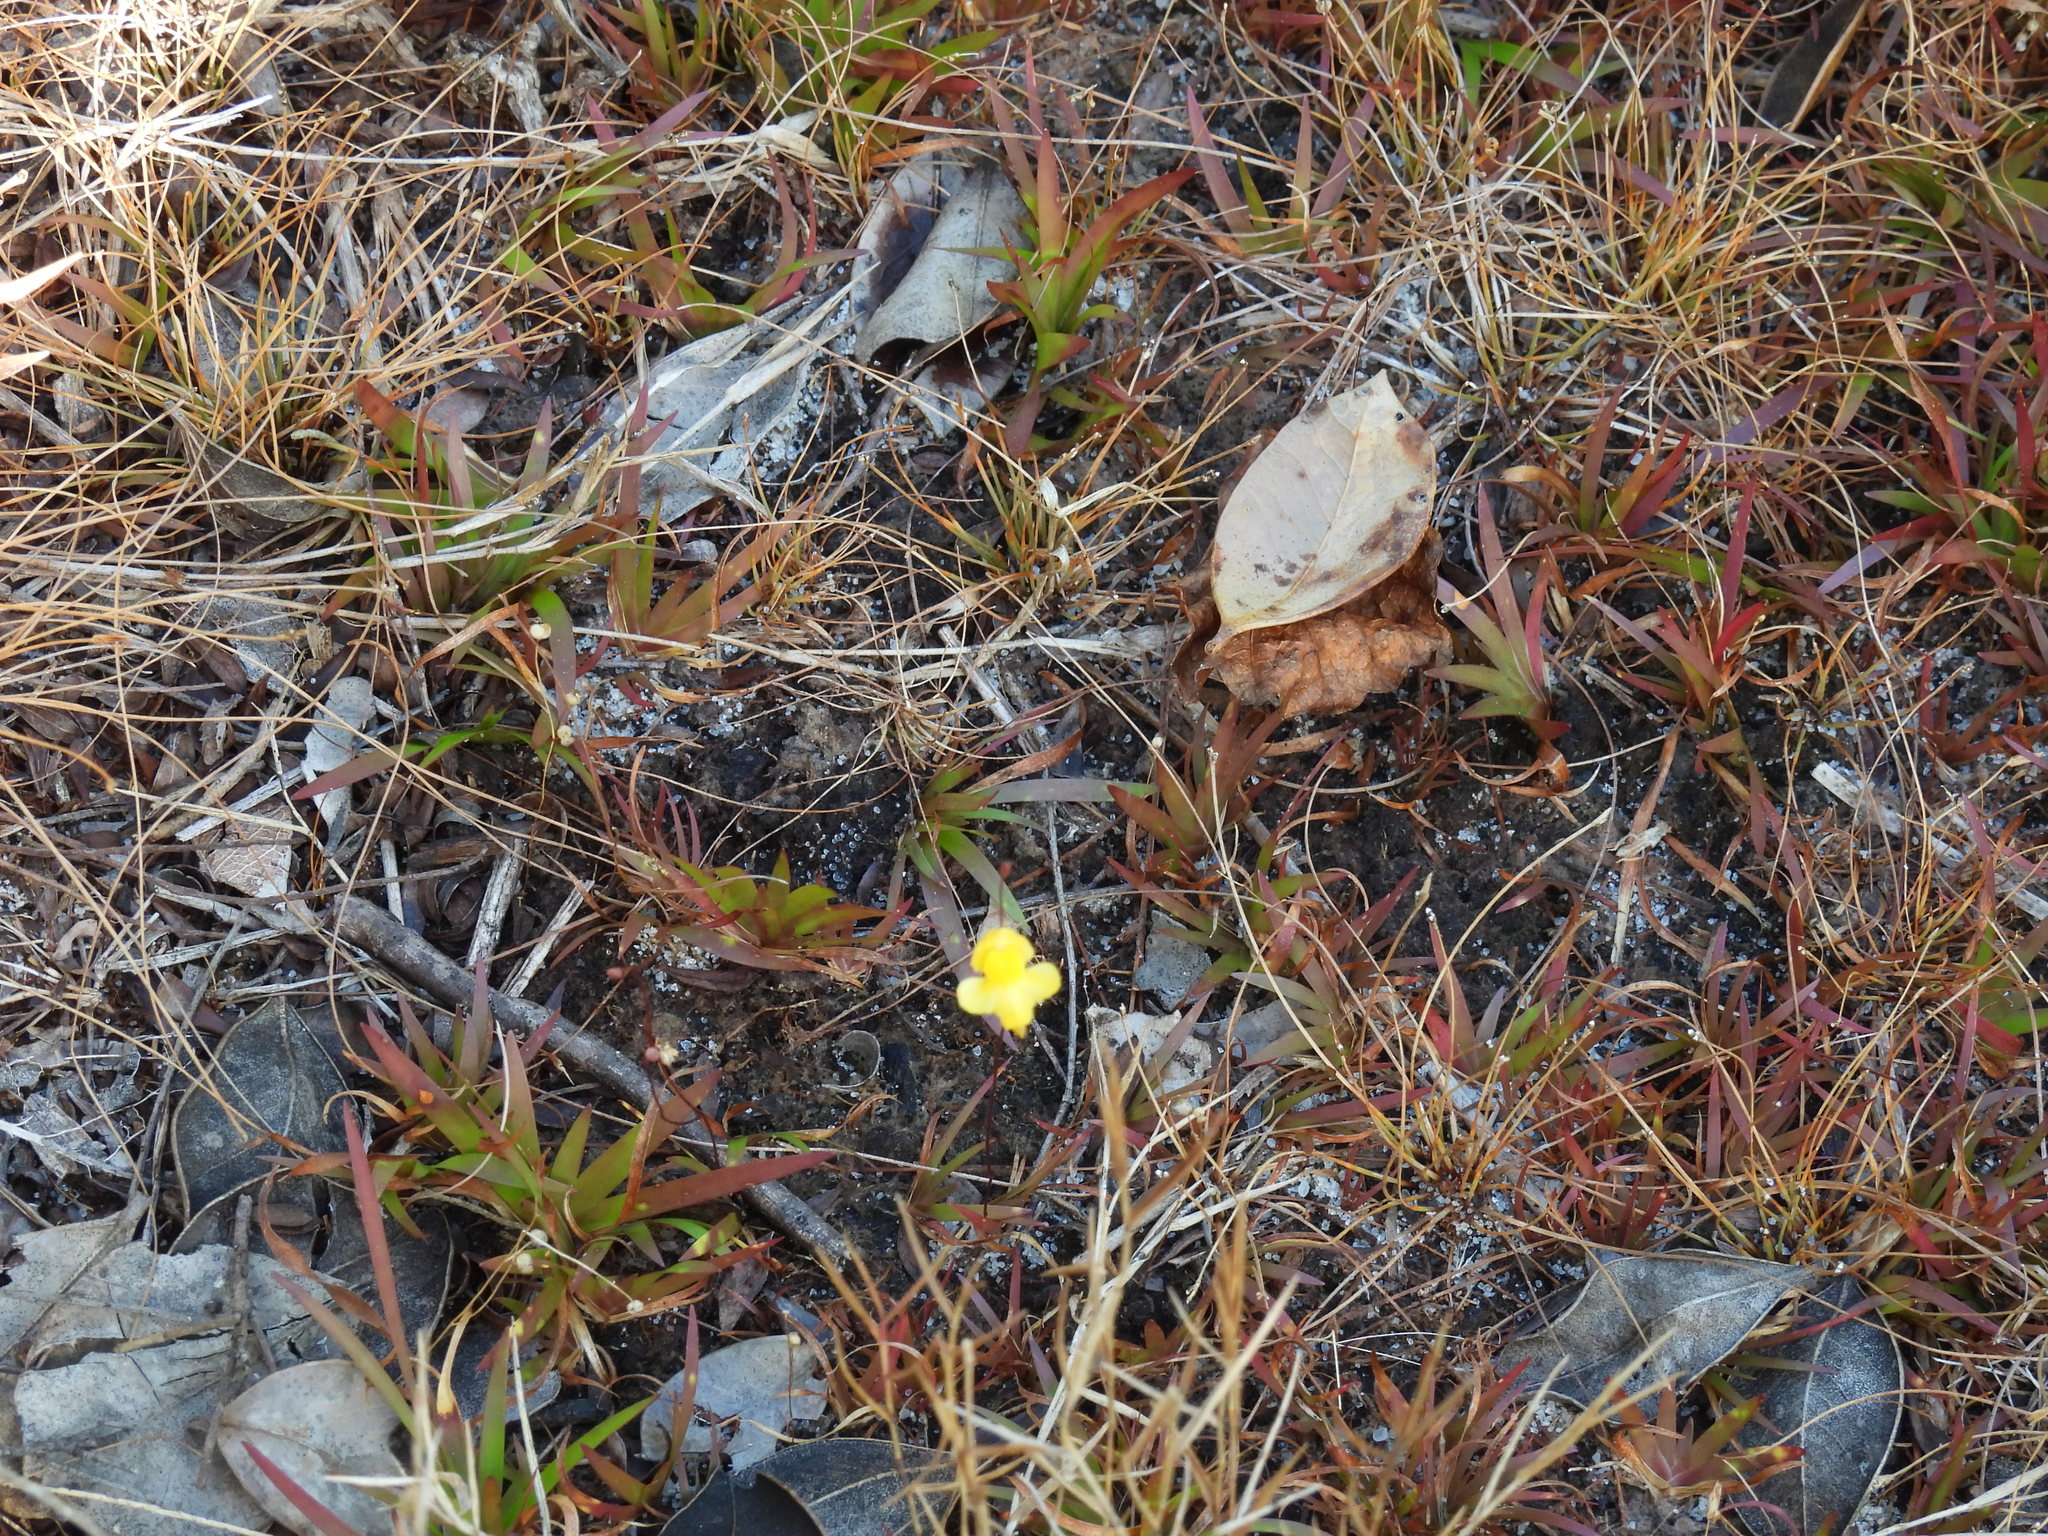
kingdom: Plantae
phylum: Tracheophyta
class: Magnoliopsida
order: Lamiales
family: Lentibulariaceae
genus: Utricularia
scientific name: Utricularia subulata
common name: Tiny bladderwort
